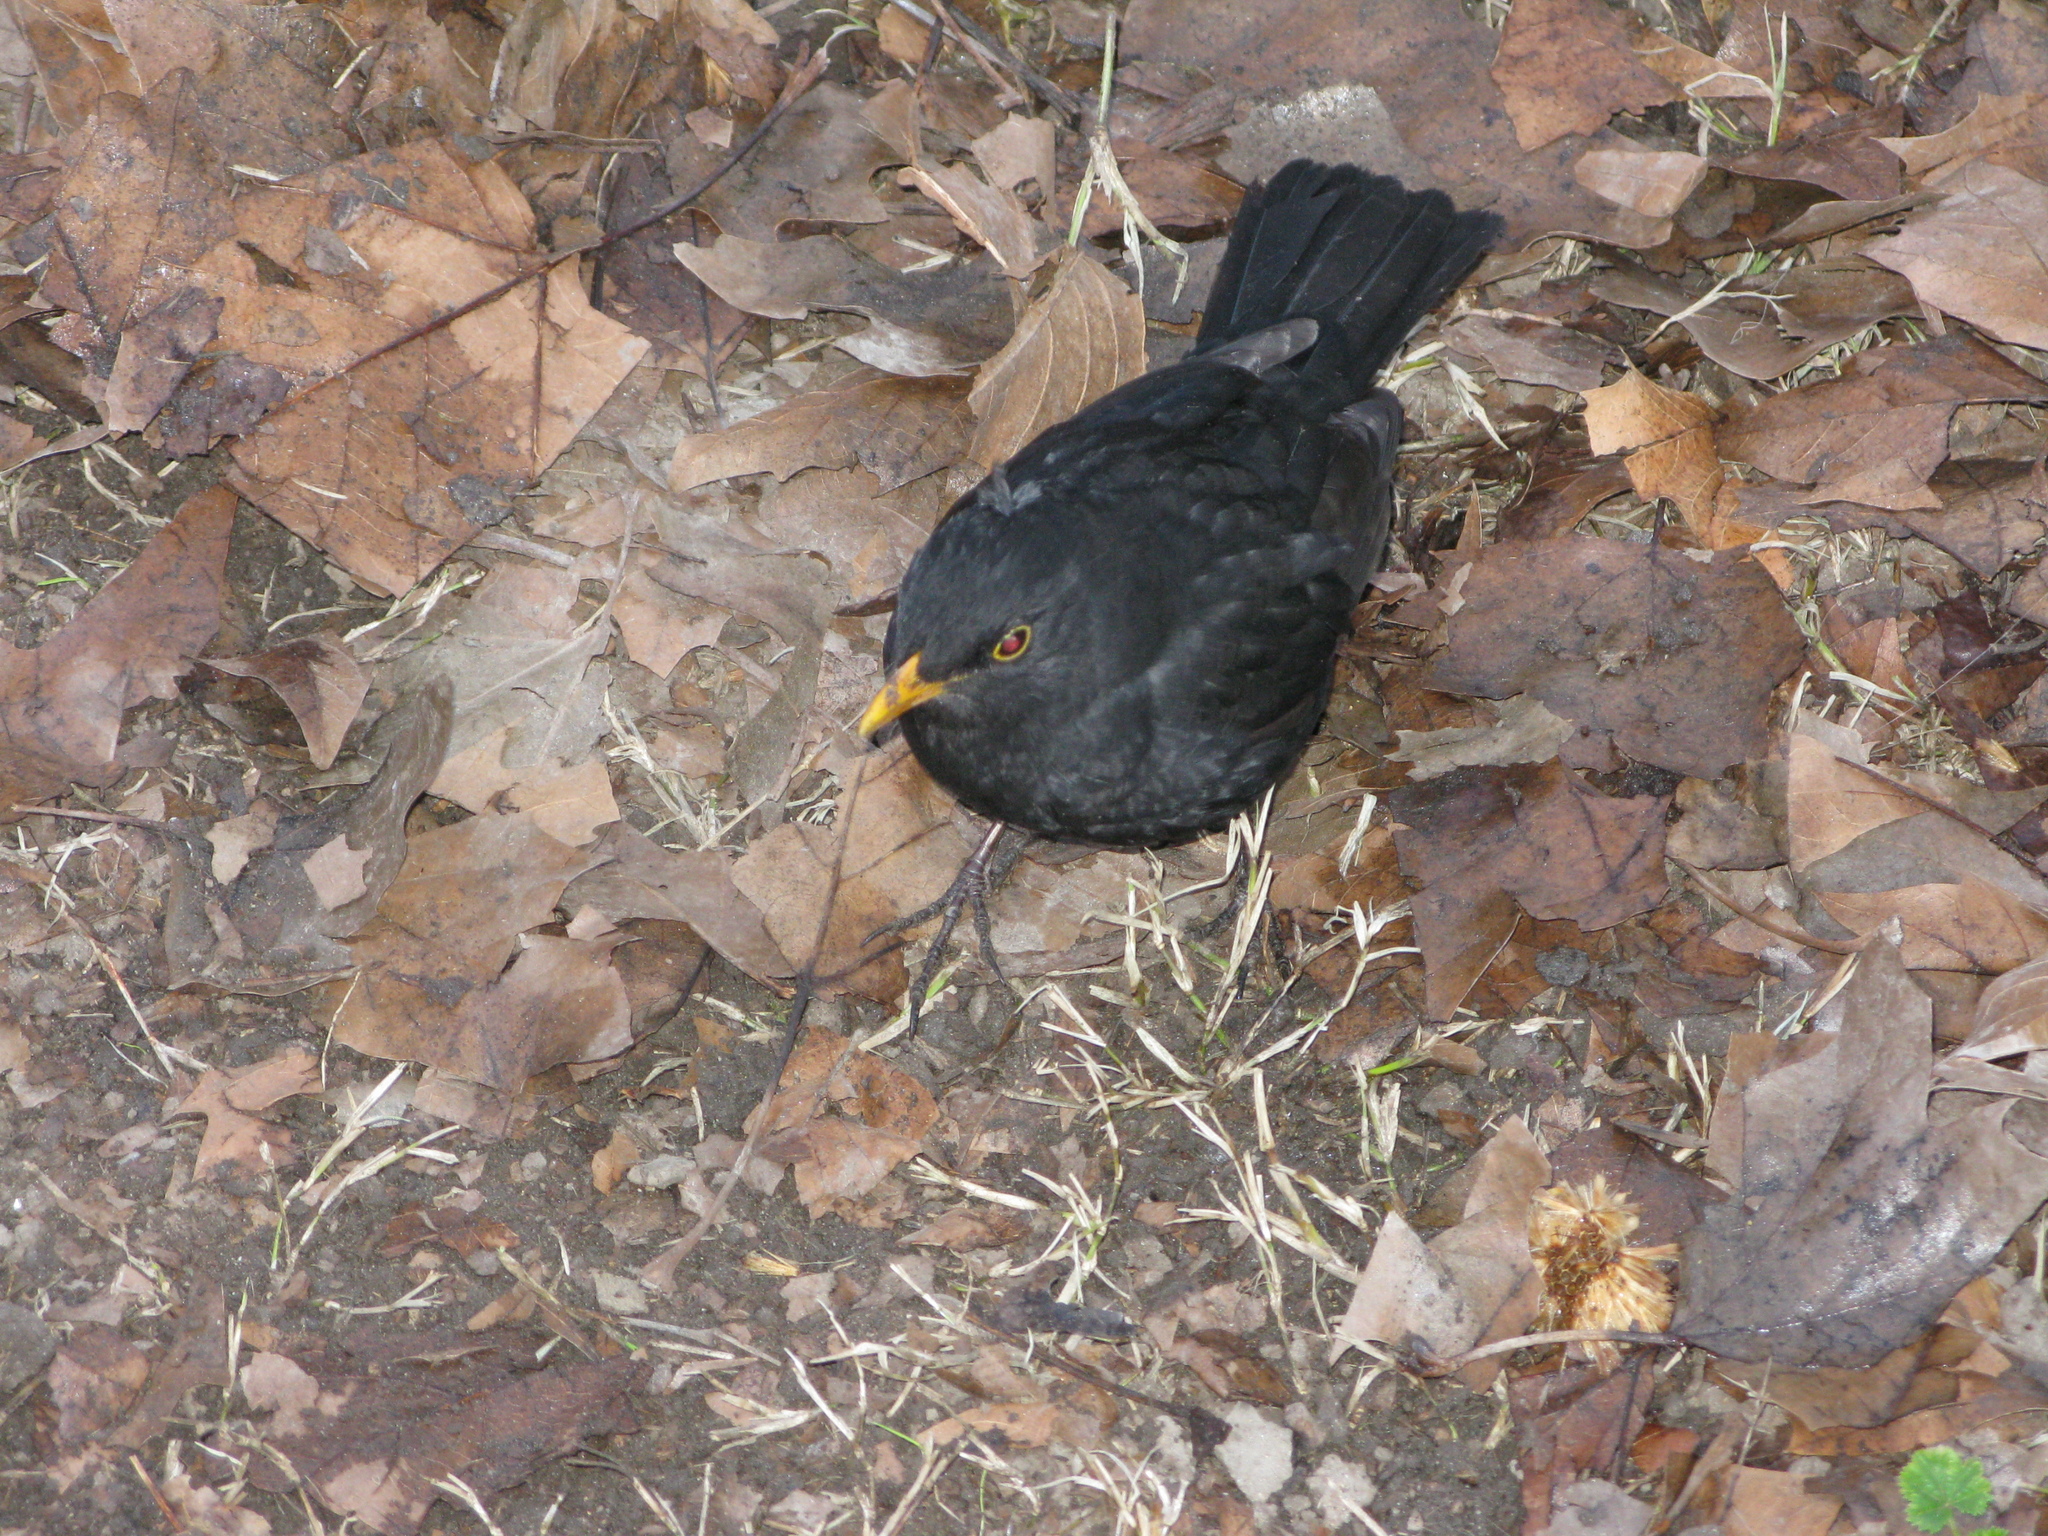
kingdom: Animalia
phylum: Chordata
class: Aves
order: Passeriformes
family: Turdidae
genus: Turdus
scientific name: Turdus merula
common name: Common blackbird
